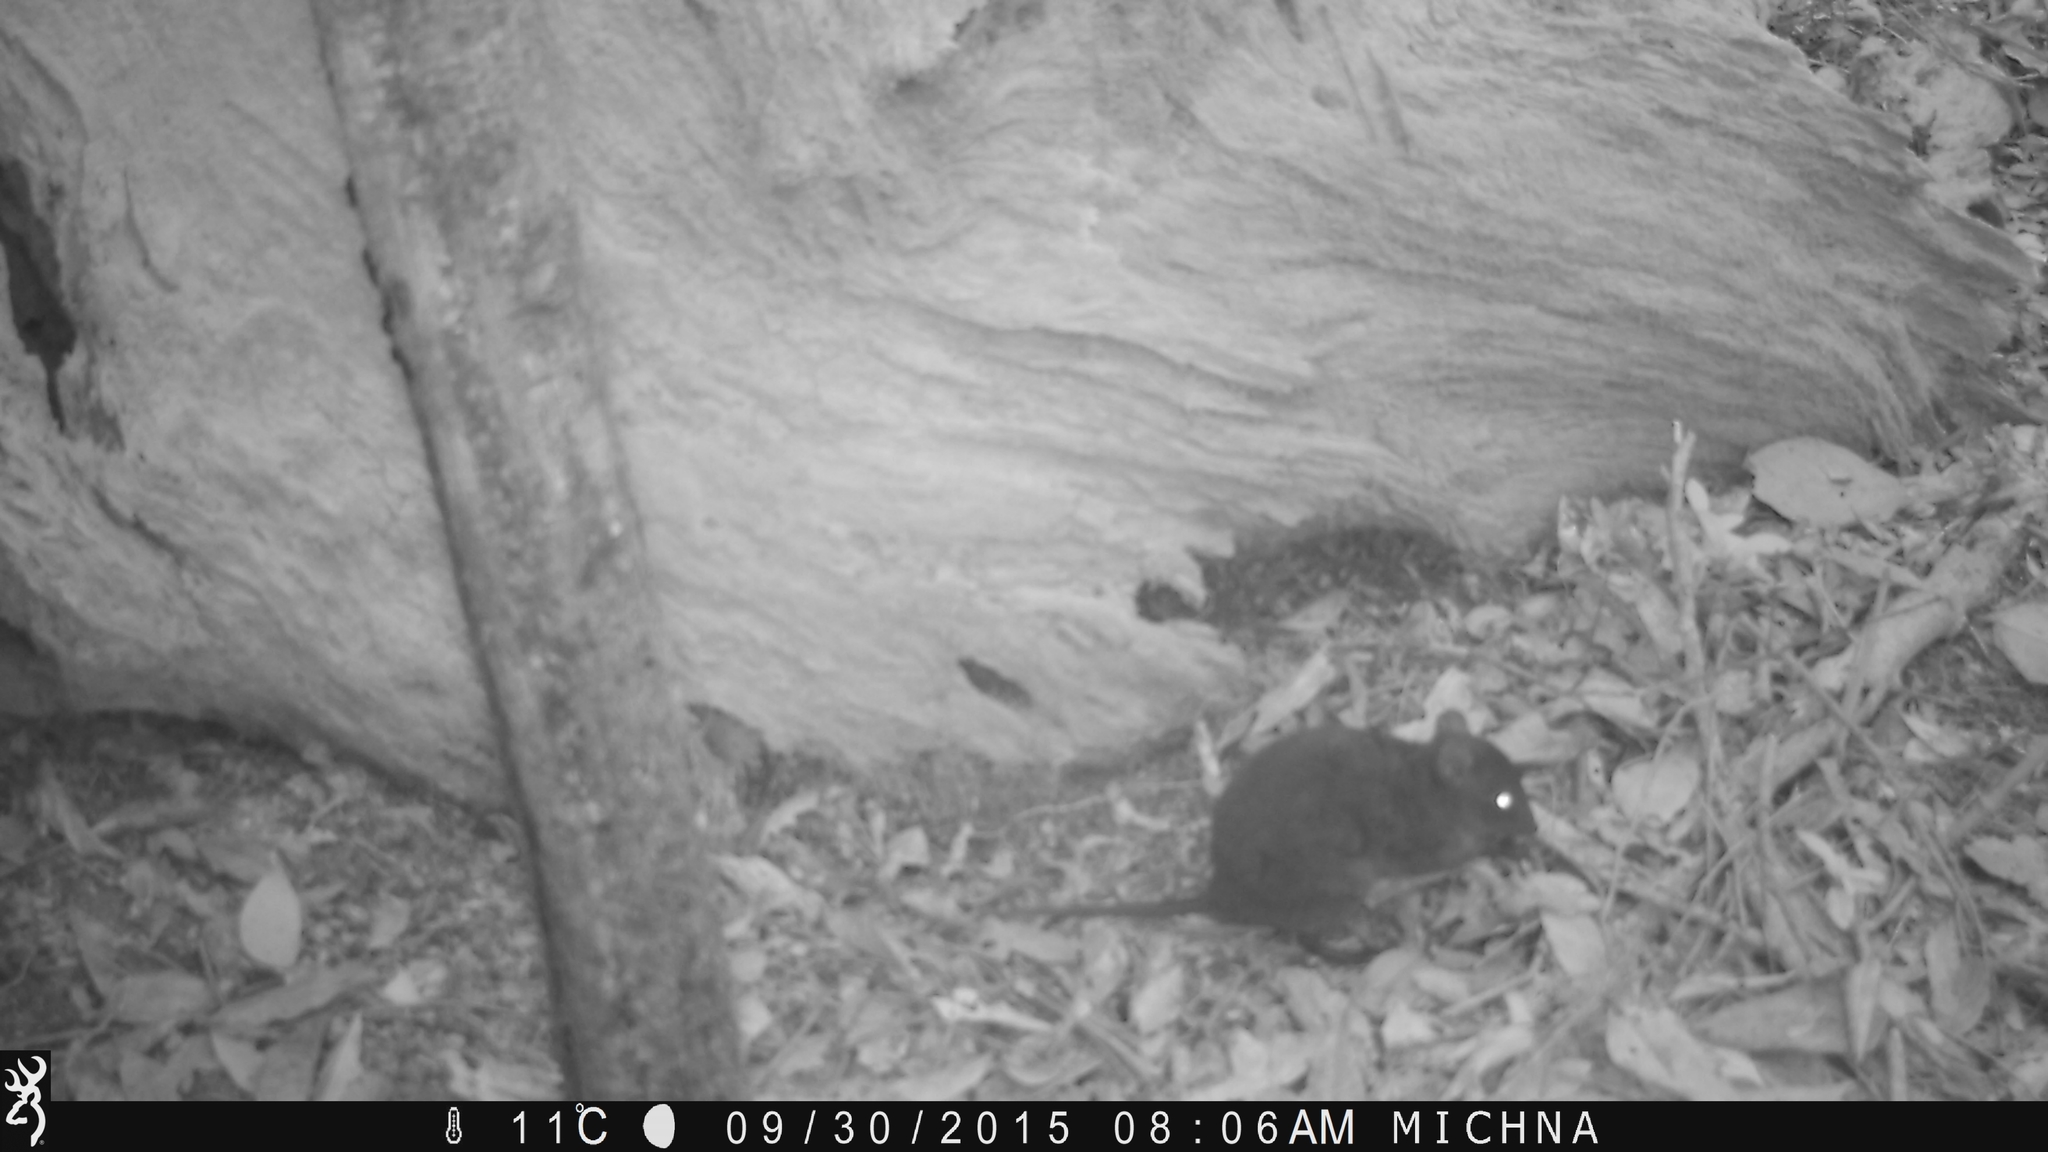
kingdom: Animalia
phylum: Chordata
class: Mammalia
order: Diprotodontia
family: Hypsiprymnodontidae
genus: Hypsiprymnodon
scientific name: Hypsiprymnodon moschatus
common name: Musky rat-kangaroo
